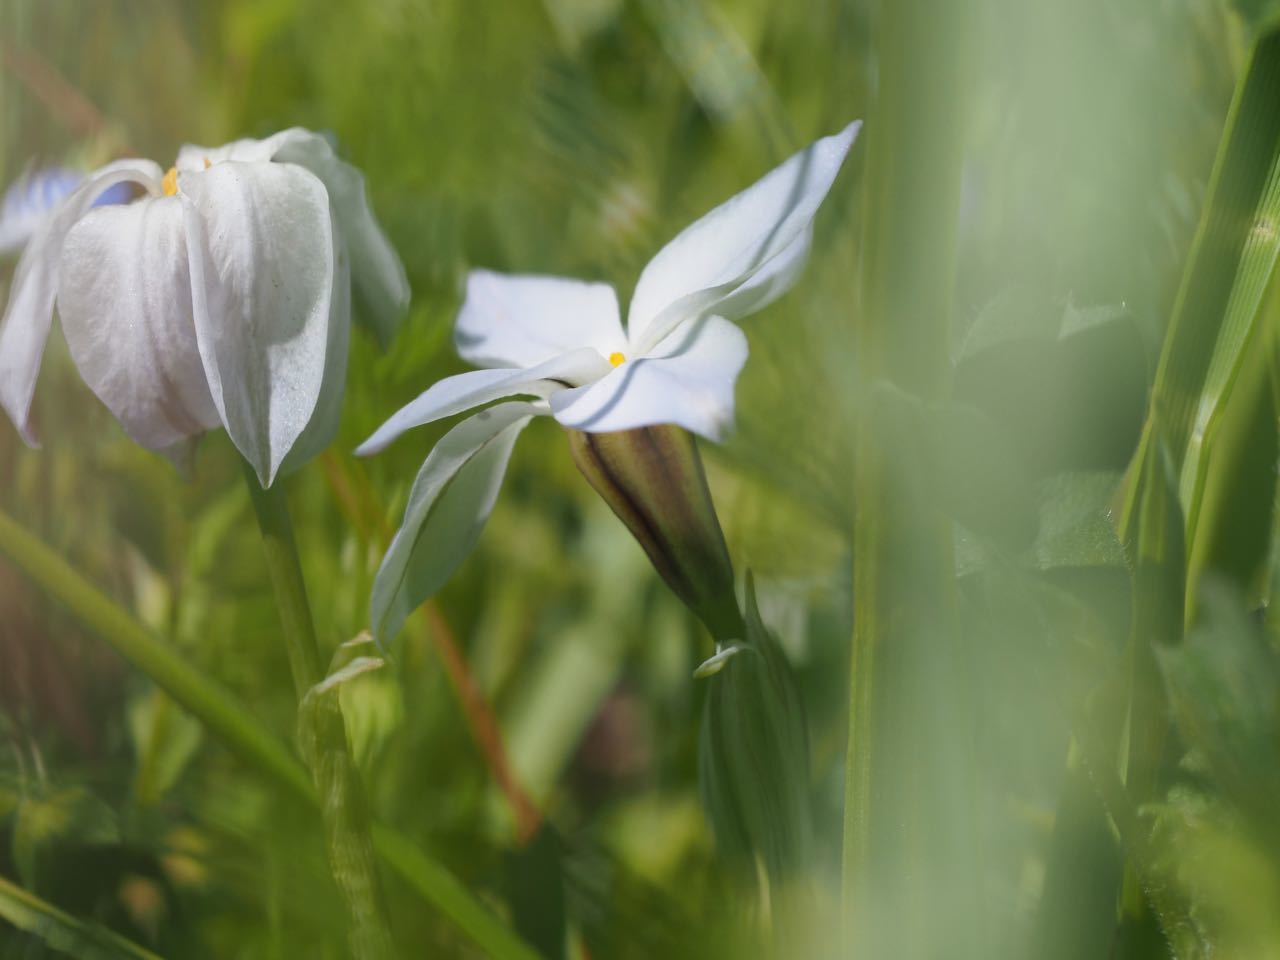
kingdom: Plantae
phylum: Tracheophyta
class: Liliopsida
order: Asparagales
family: Amaryllidaceae
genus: Ipheion
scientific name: Ipheion uniflorum
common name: Spring starflower
